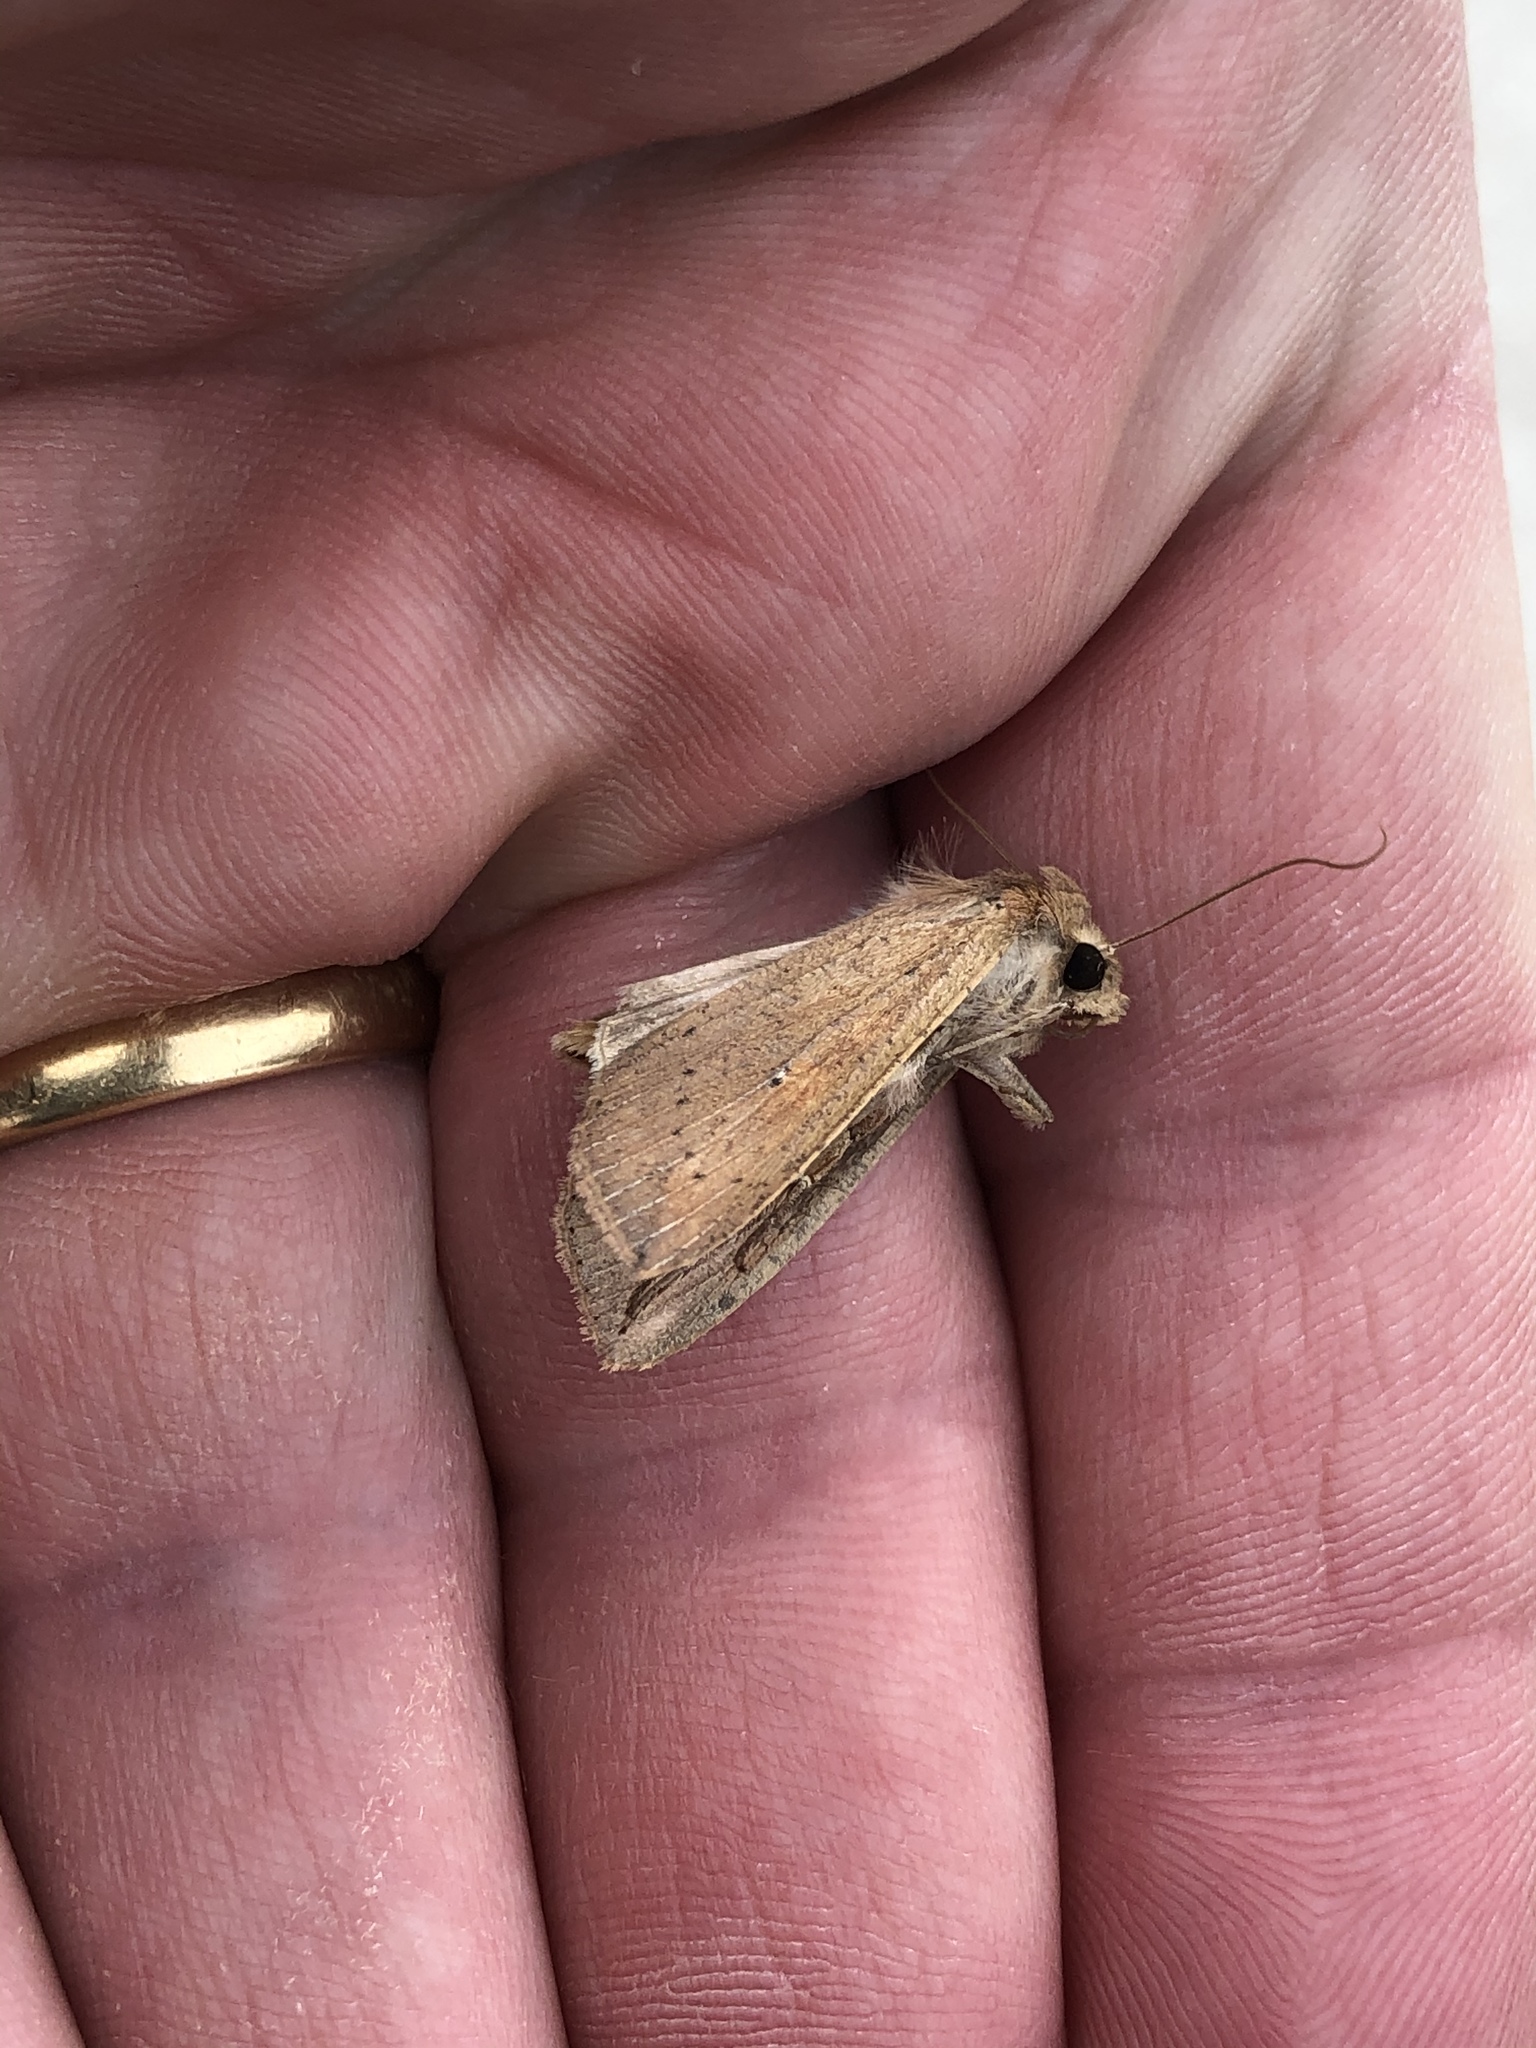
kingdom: Animalia
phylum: Arthropoda
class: Insecta
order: Lepidoptera
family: Noctuidae
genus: Mythimna
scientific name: Mythimna separata
